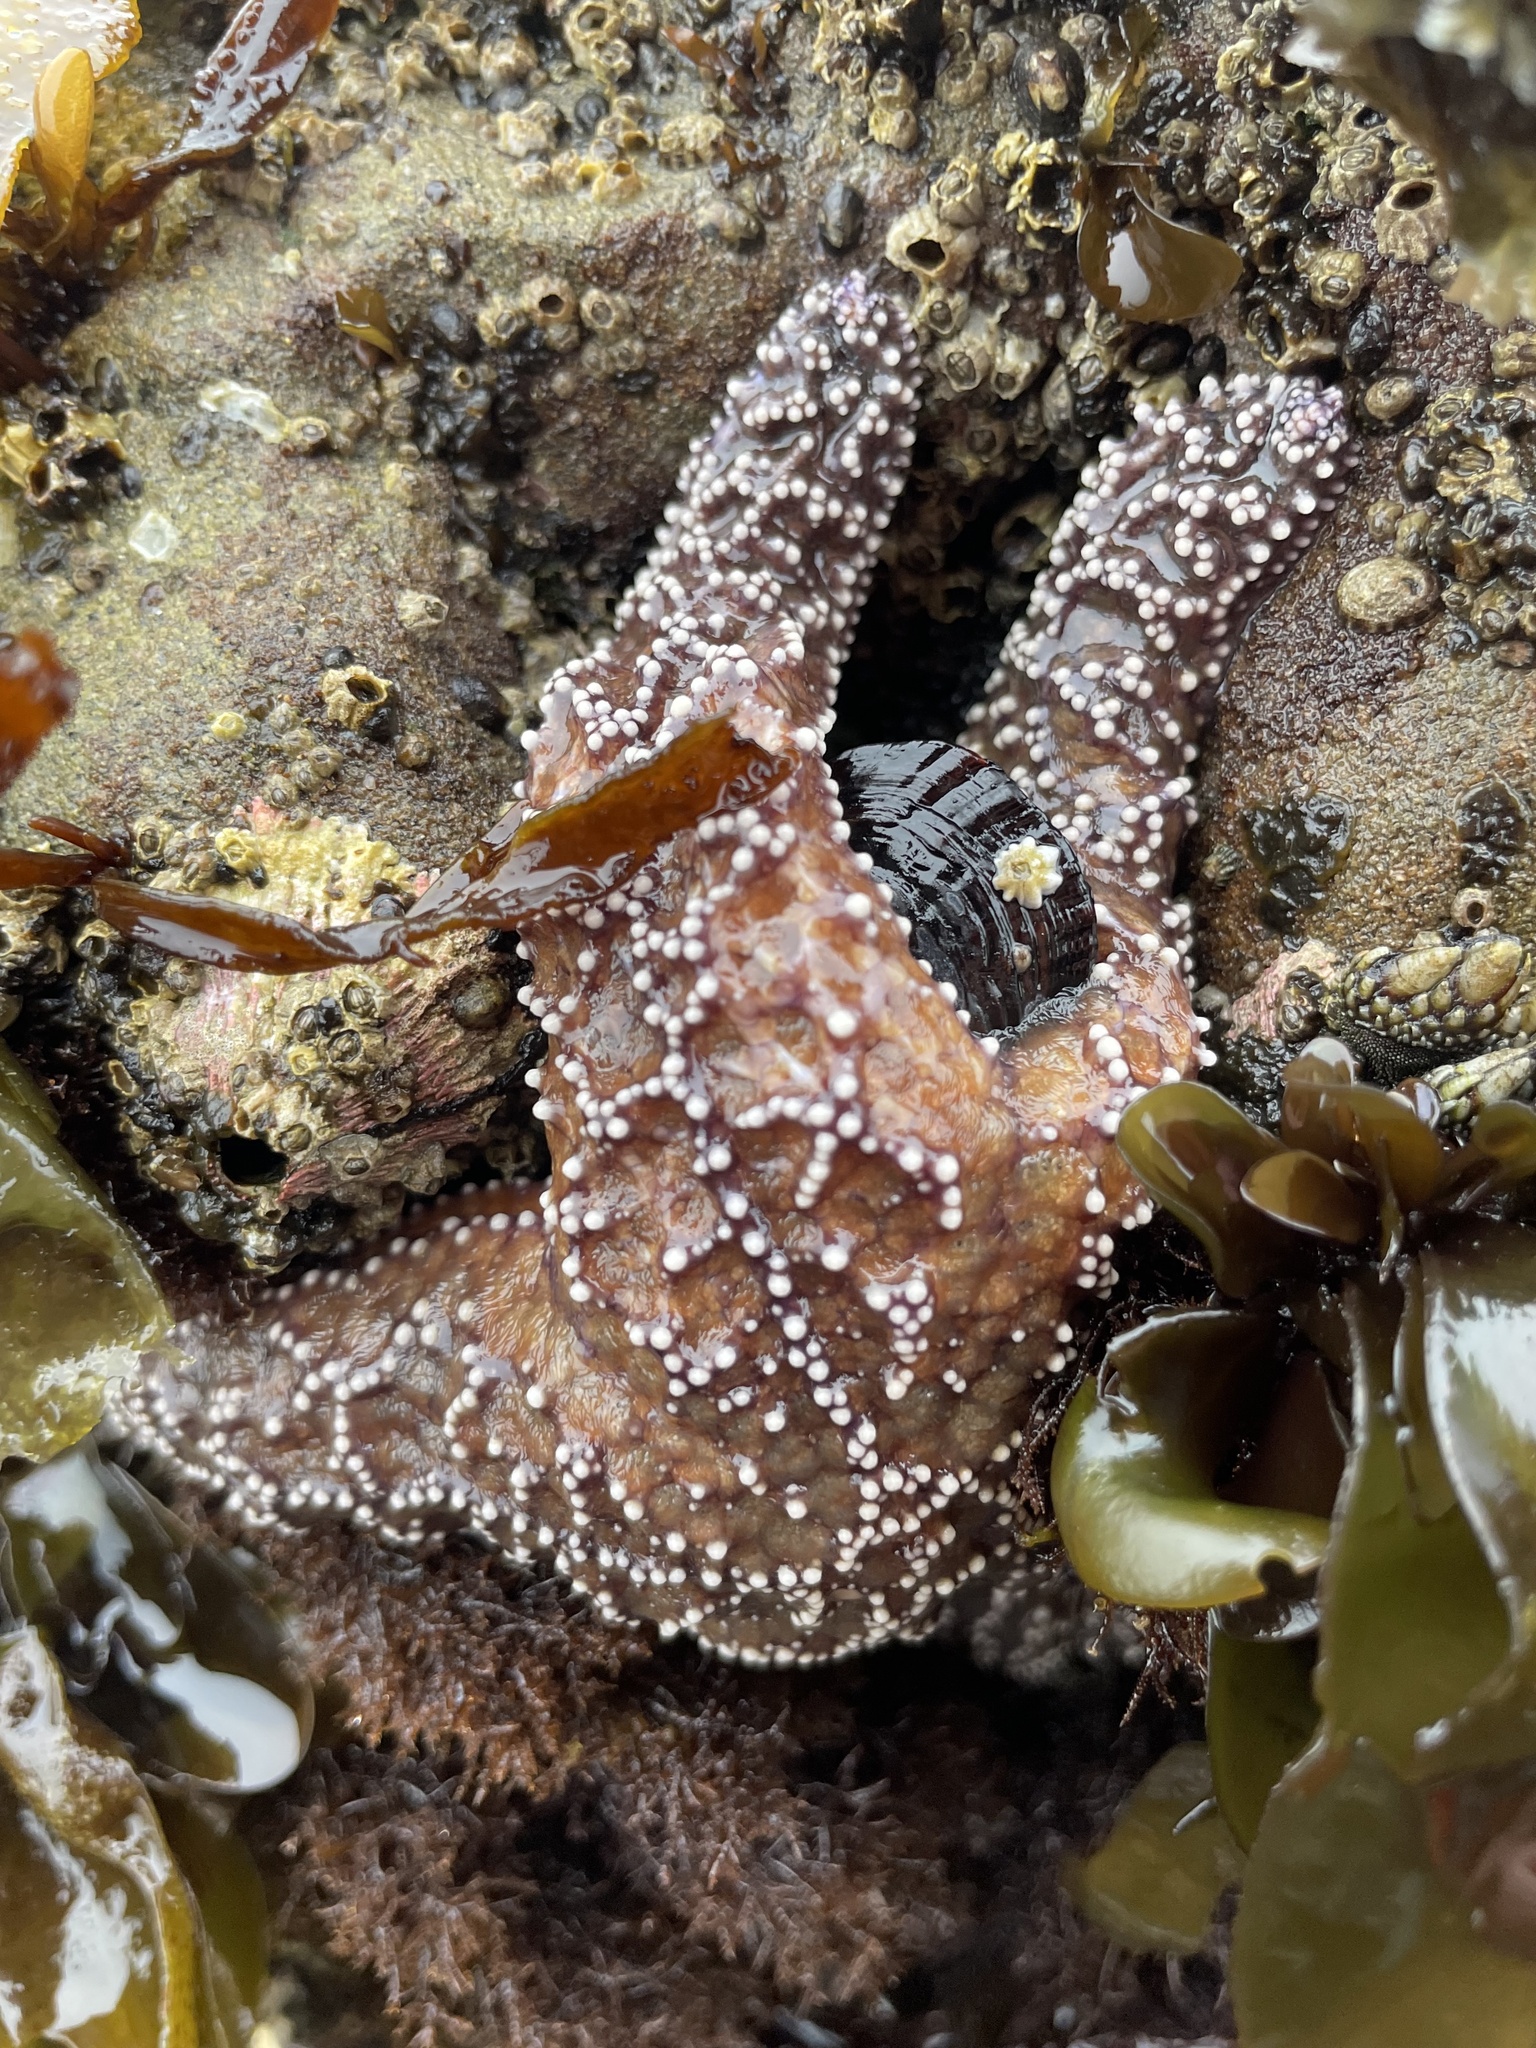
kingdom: Animalia
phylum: Echinodermata
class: Asteroidea
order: Forcipulatida
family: Asteriidae
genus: Pisaster
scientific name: Pisaster ochraceus
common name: Ochre stars
